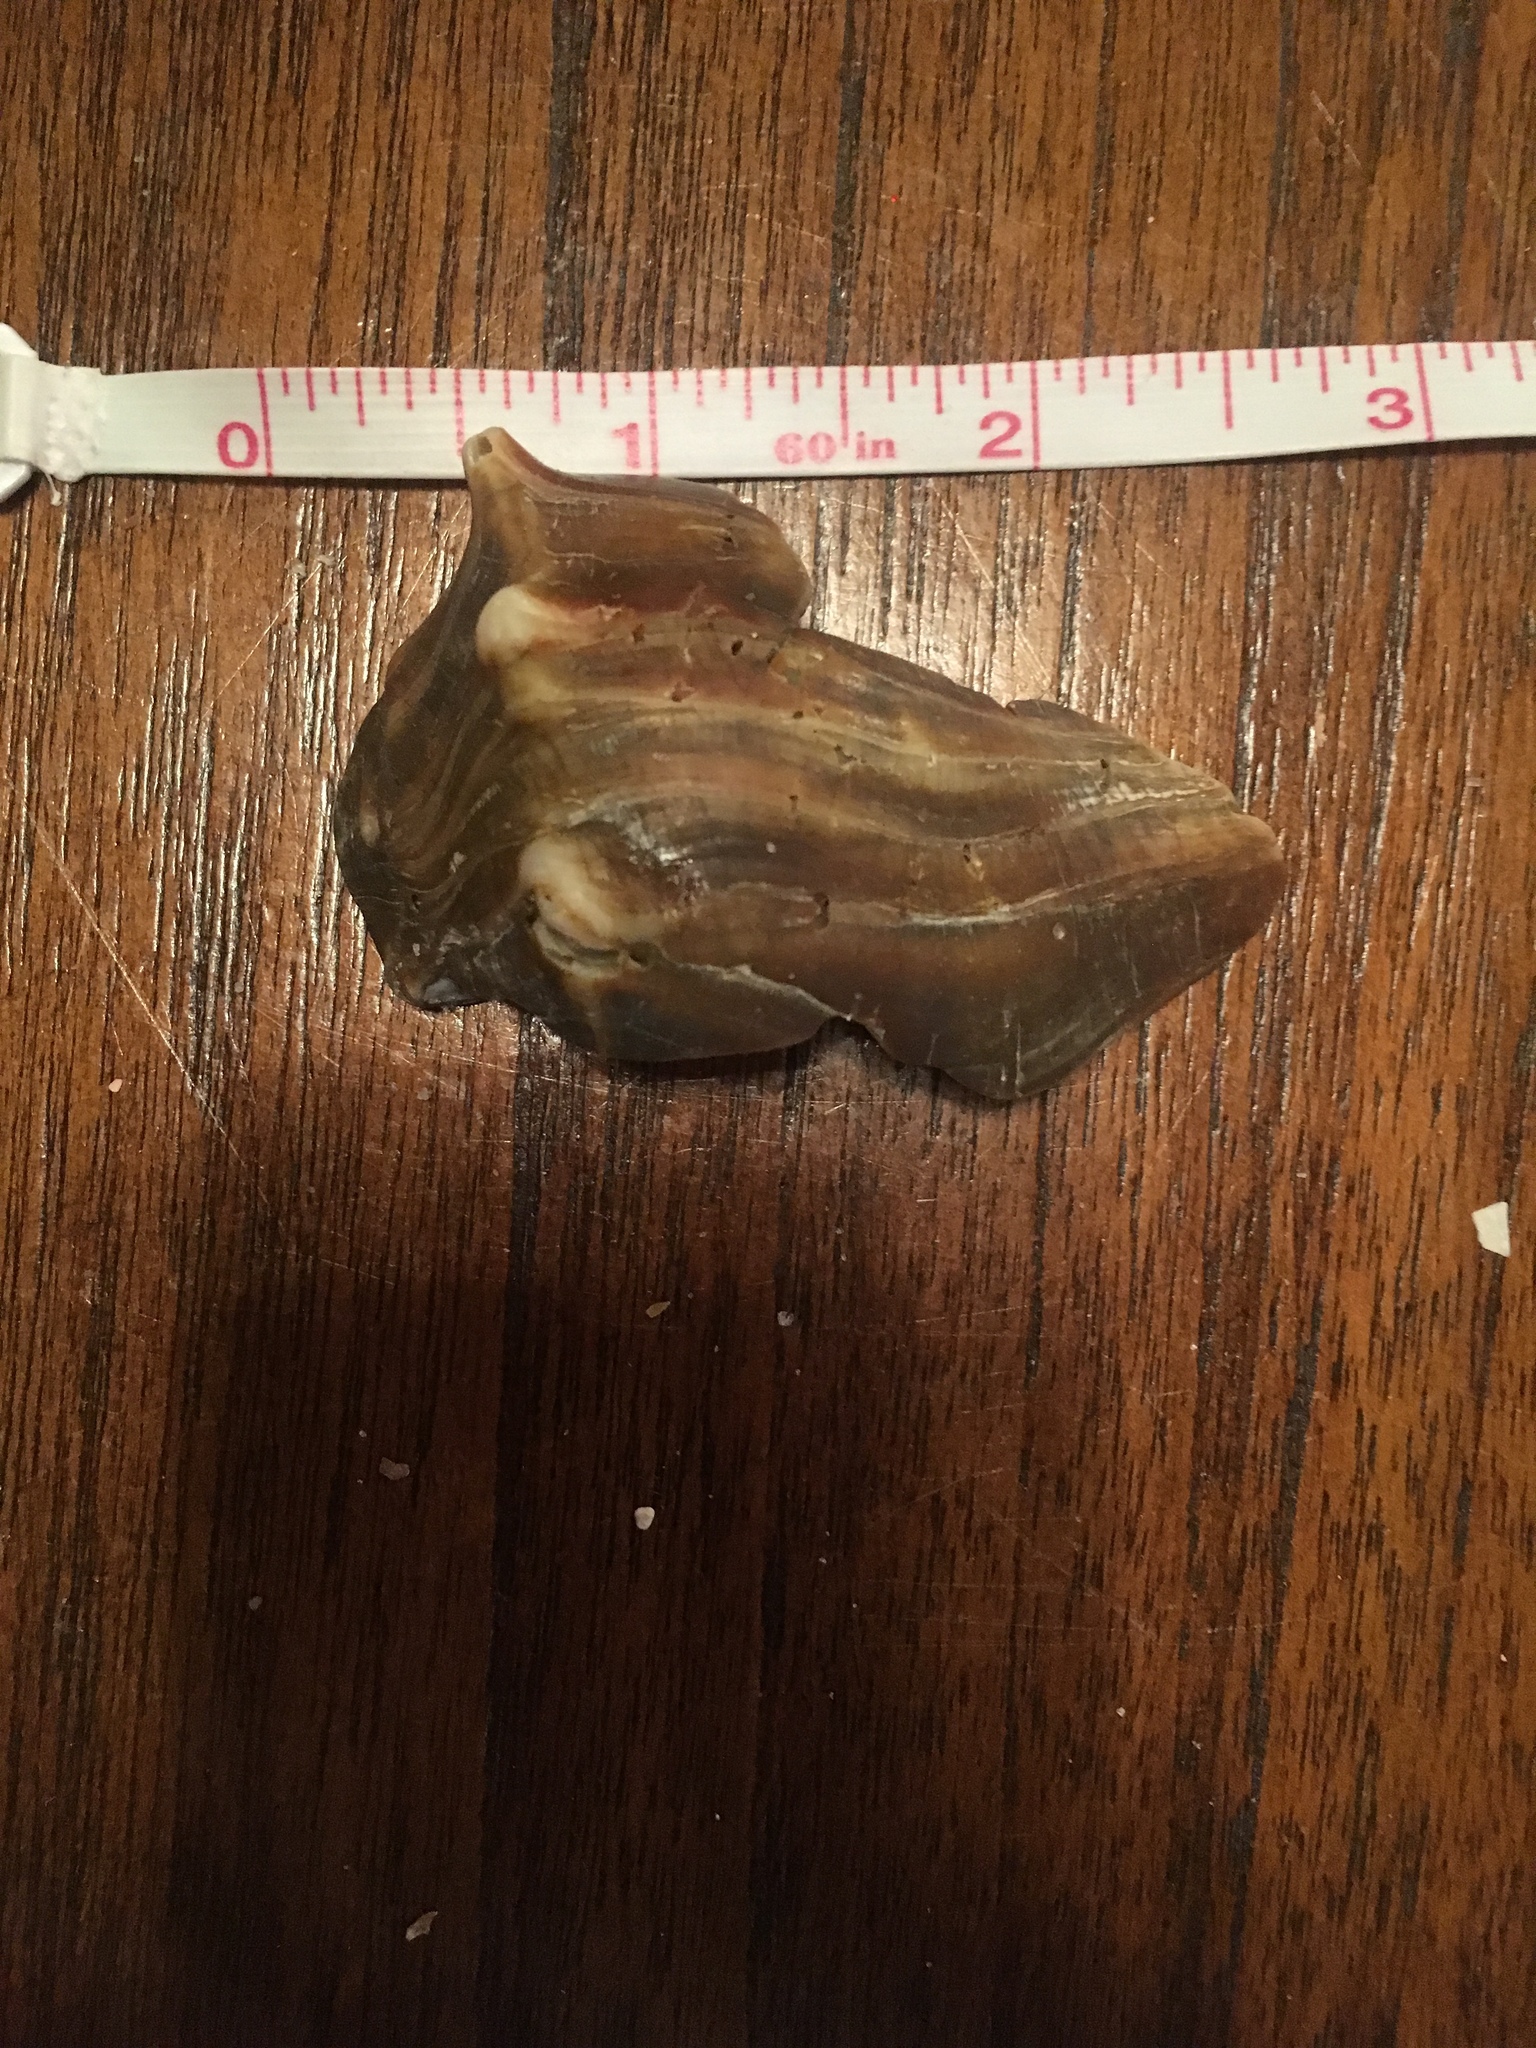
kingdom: Animalia
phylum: Mollusca
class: Gastropoda
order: Neogastropoda
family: Busyconidae
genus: Busycon
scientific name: Busycon carica
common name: Knobbed whelk
